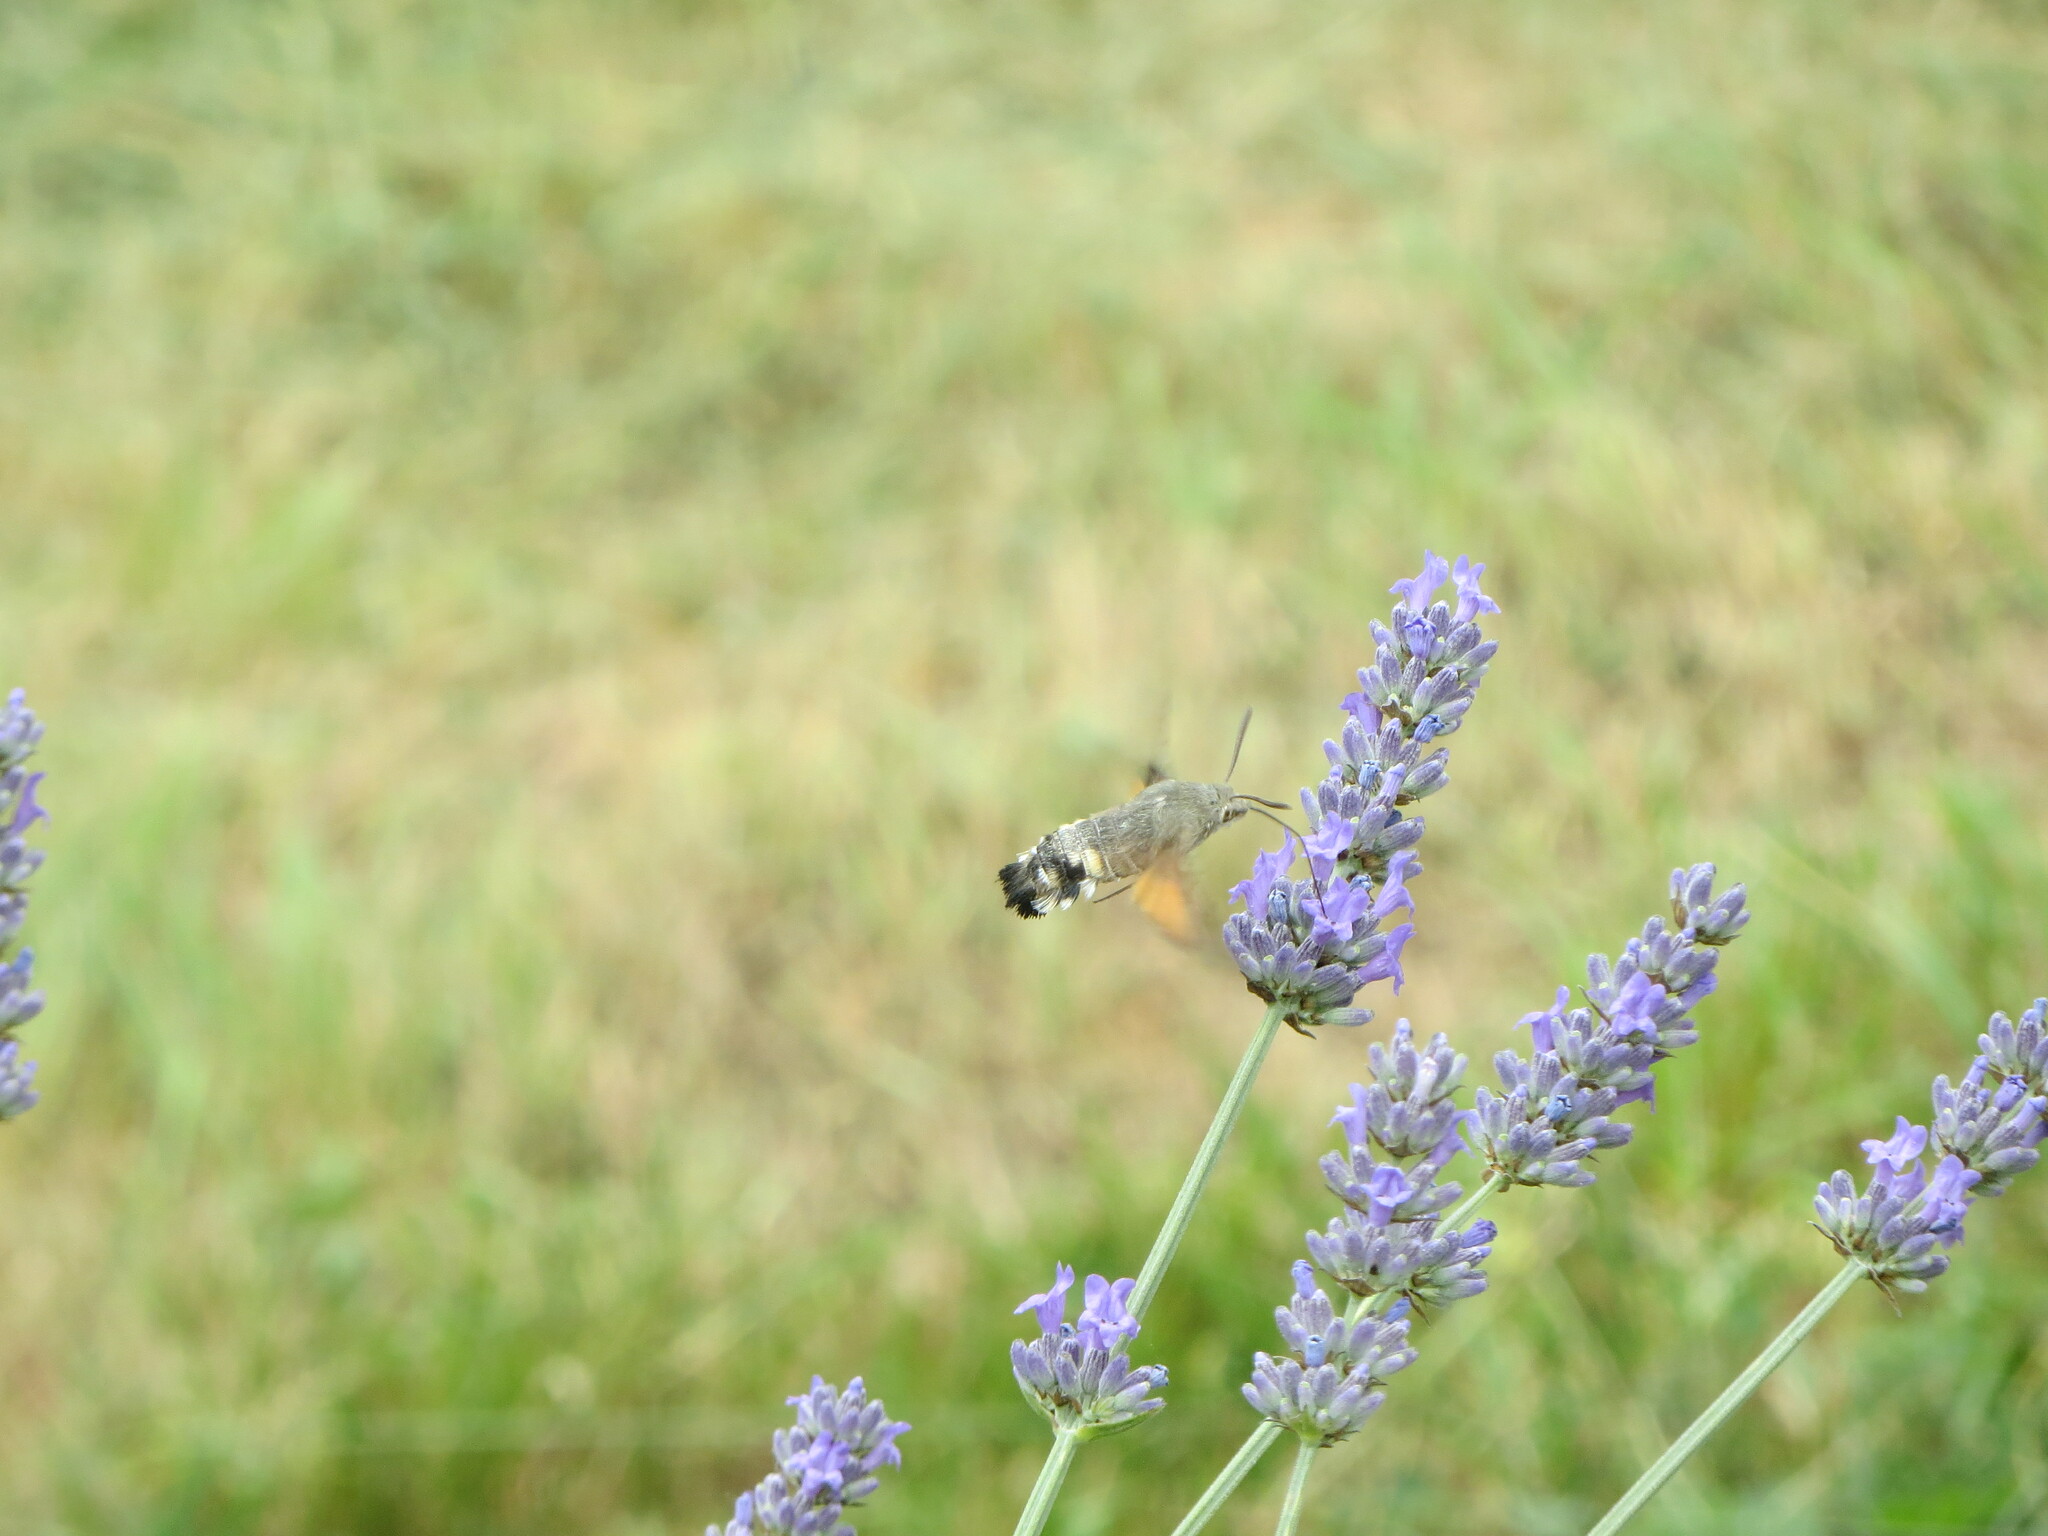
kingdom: Animalia
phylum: Arthropoda
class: Insecta
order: Lepidoptera
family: Sphingidae
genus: Macroglossum
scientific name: Macroglossum stellatarum
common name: Humming-bird hawk-moth
